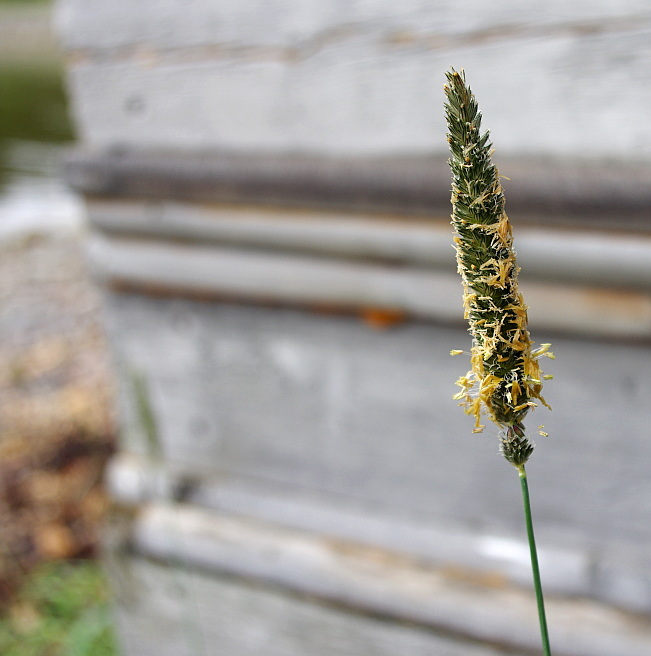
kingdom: Plantae
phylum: Tracheophyta
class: Liliopsida
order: Poales
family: Poaceae
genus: Alopecurus
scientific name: Alopecurus arundinaceus
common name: Creeping meadow foxtail
